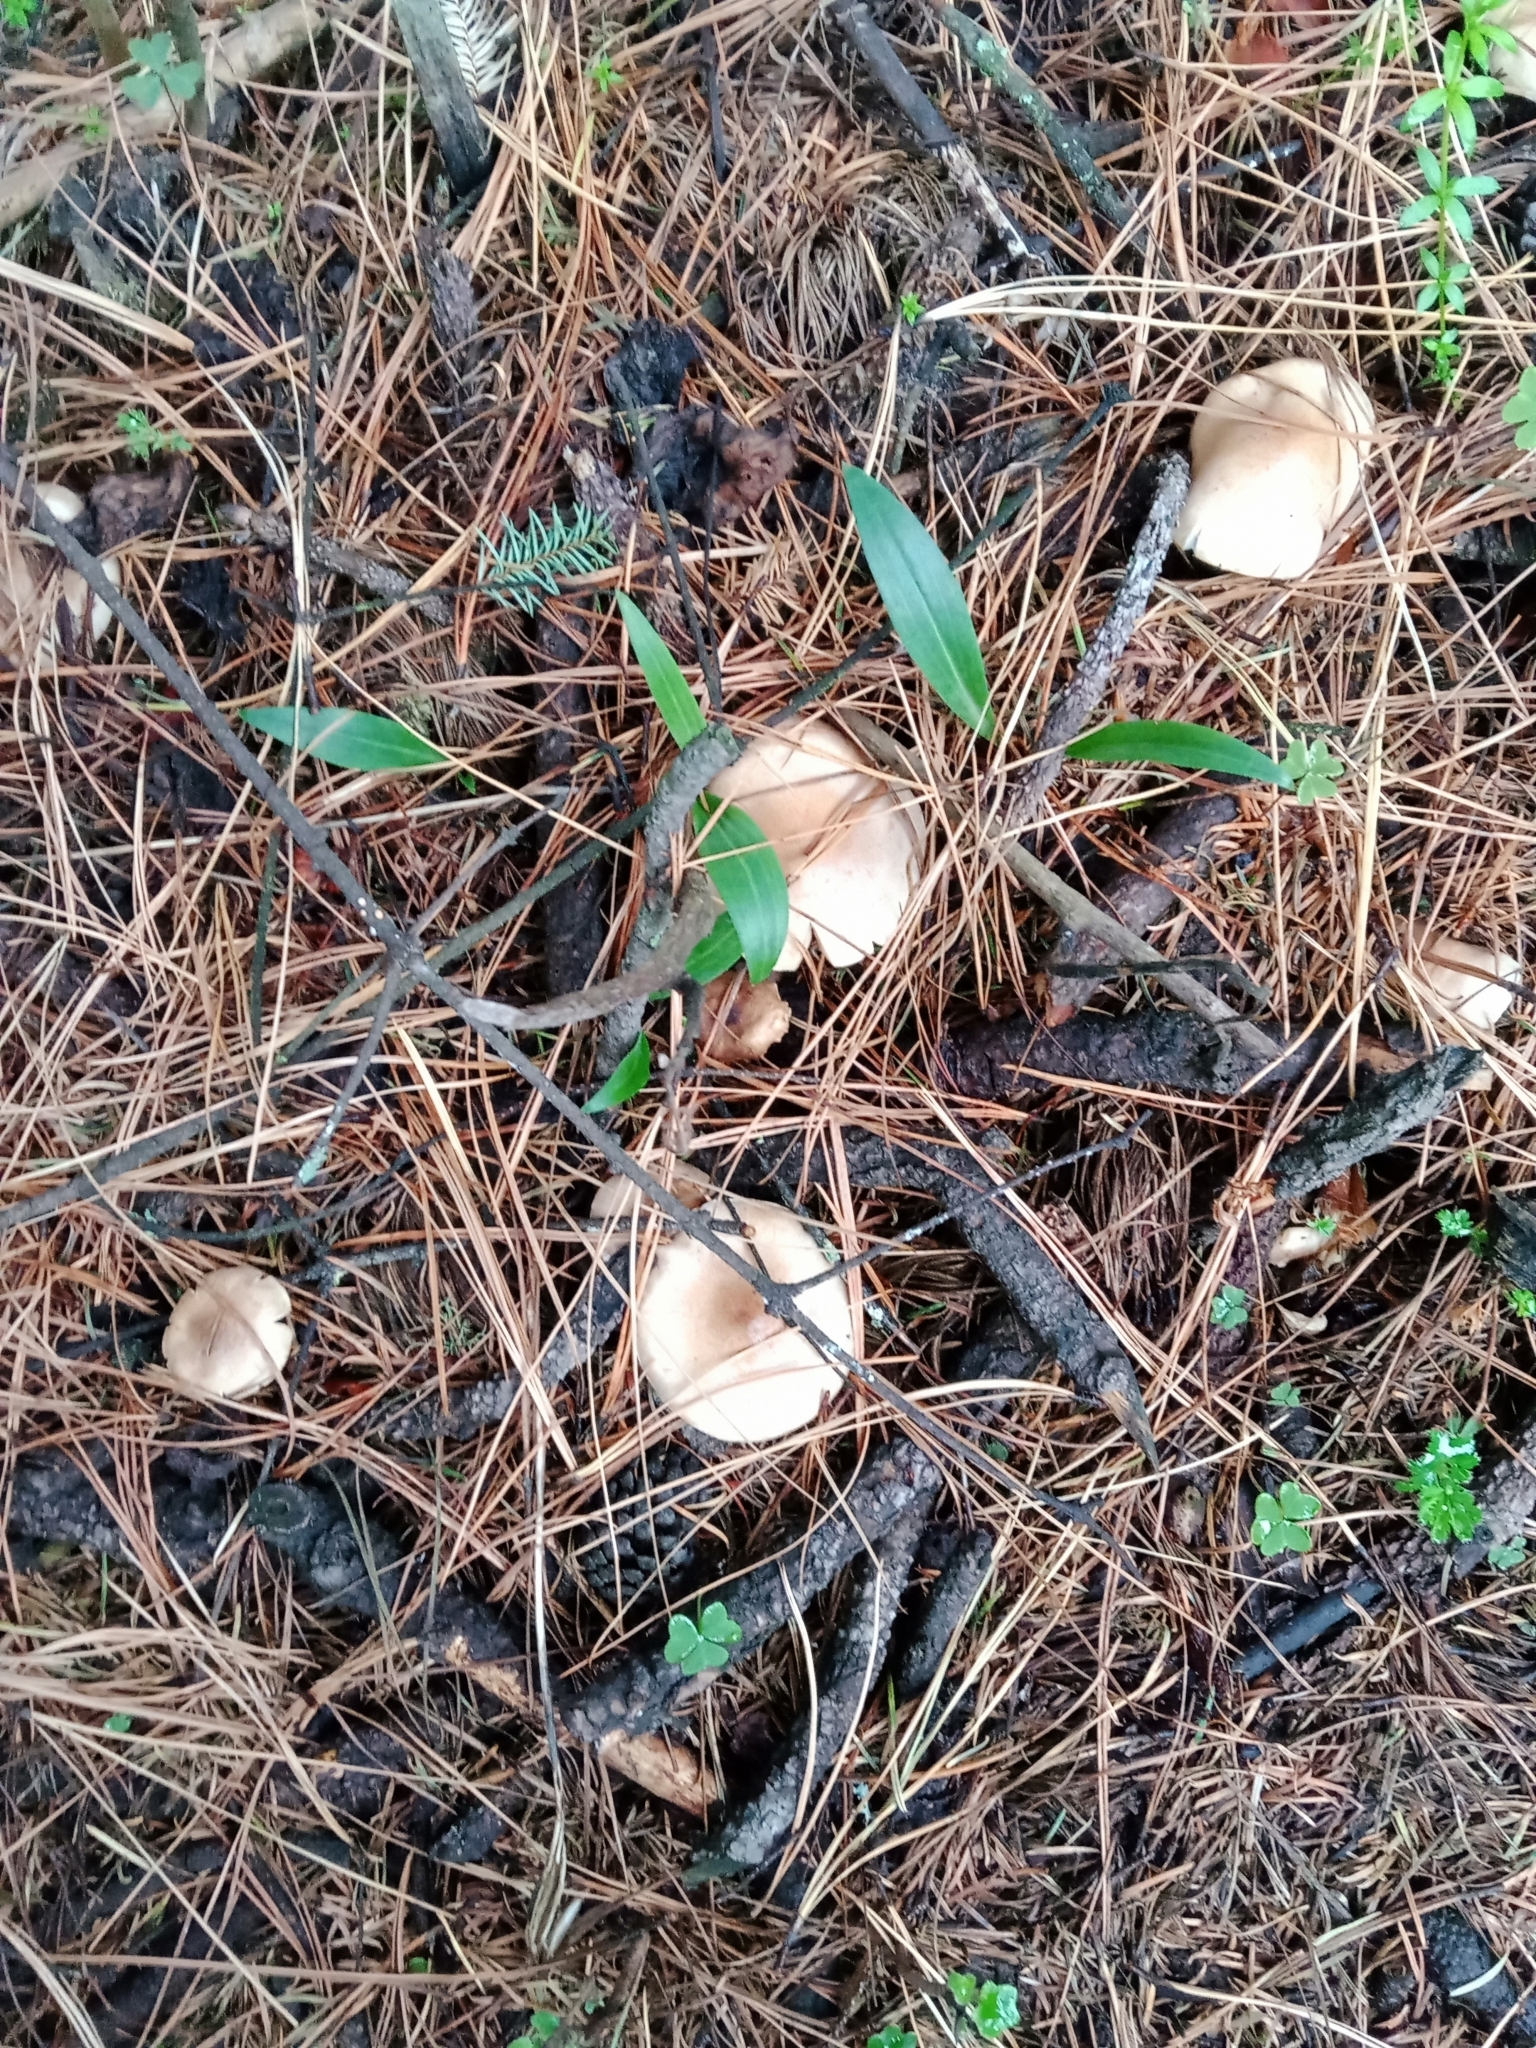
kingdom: Fungi
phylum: Basidiomycota
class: Agaricomycetes
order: Agaricales
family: Strophariaceae
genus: Pholiota
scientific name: Pholiota lenta
